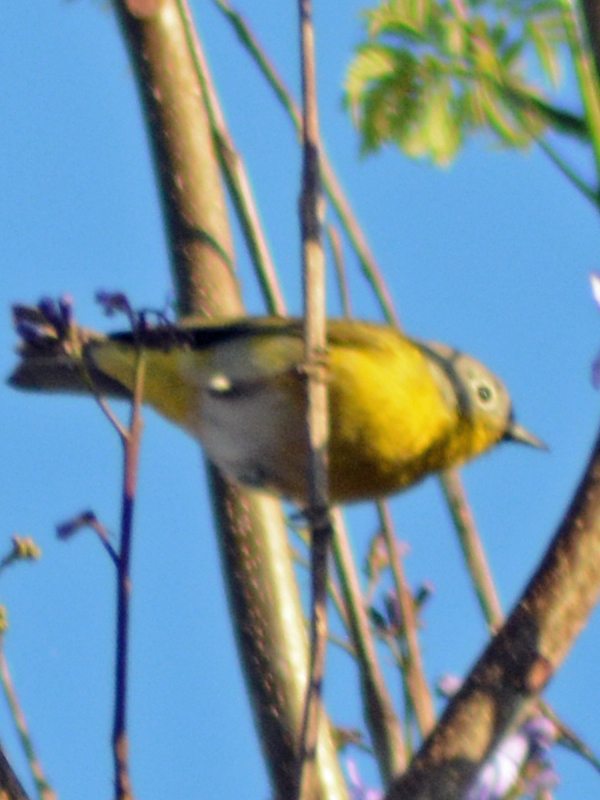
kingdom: Animalia
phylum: Chordata
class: Aves
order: Passeriformes
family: Parulidae
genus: Leiothlypis
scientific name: Leiothlypis ruficapilla
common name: Nashville warbler
